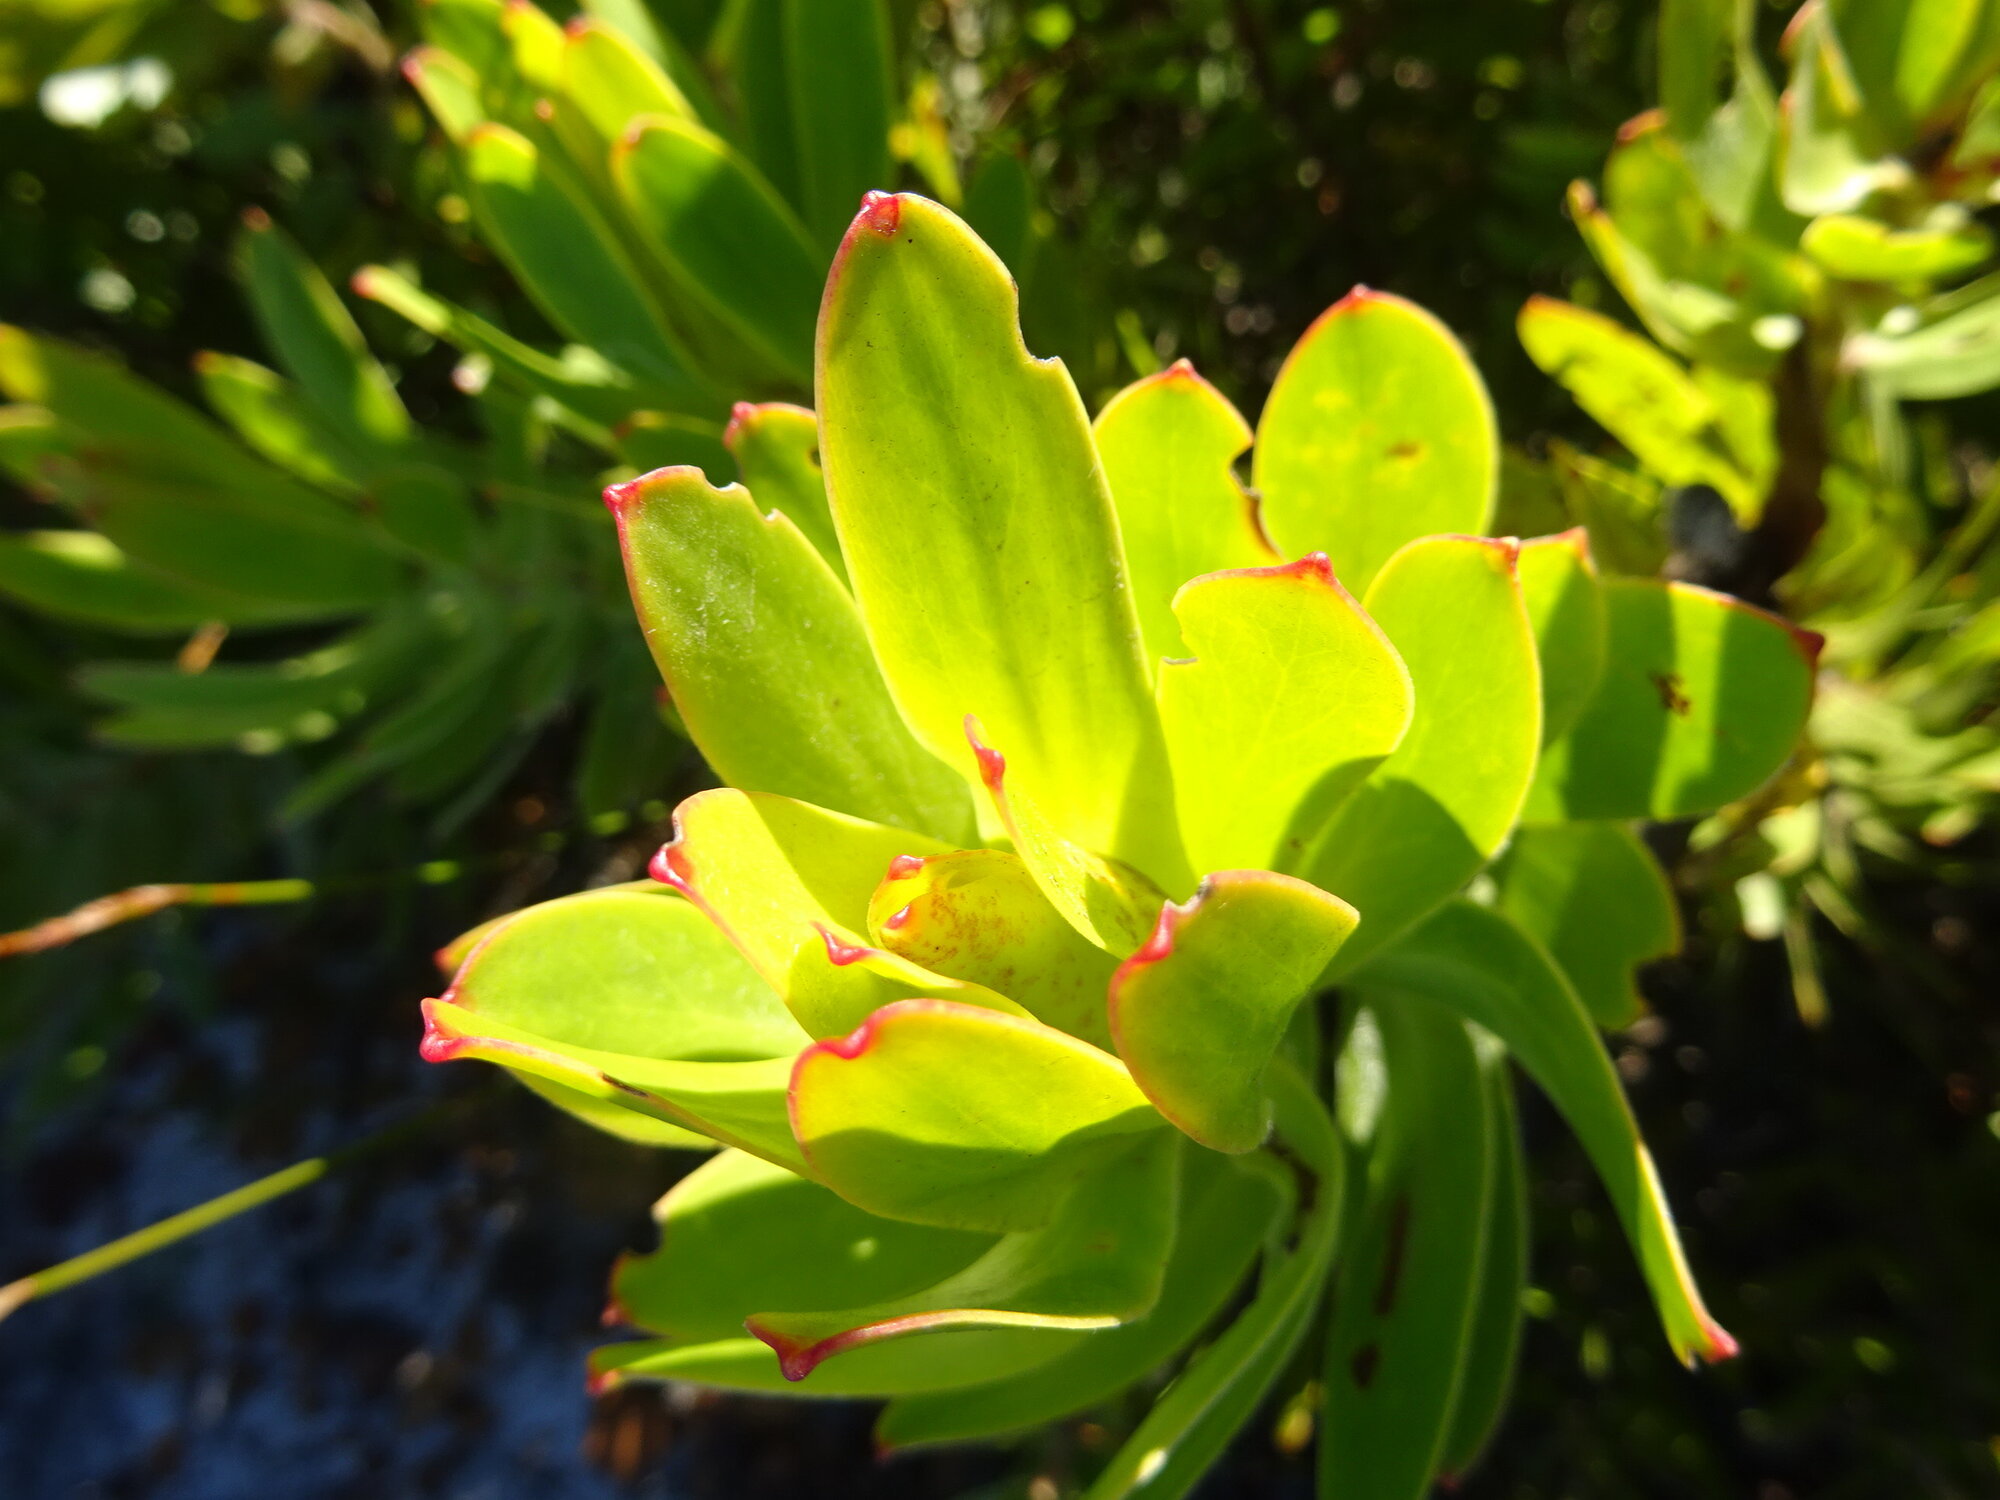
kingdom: Plantae
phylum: Tracheophyta
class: Magnoliopsida
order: Proteales
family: Proteaceae
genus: Leucadendron
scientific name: Leucadendron laureolum
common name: Golden sunshinebush
